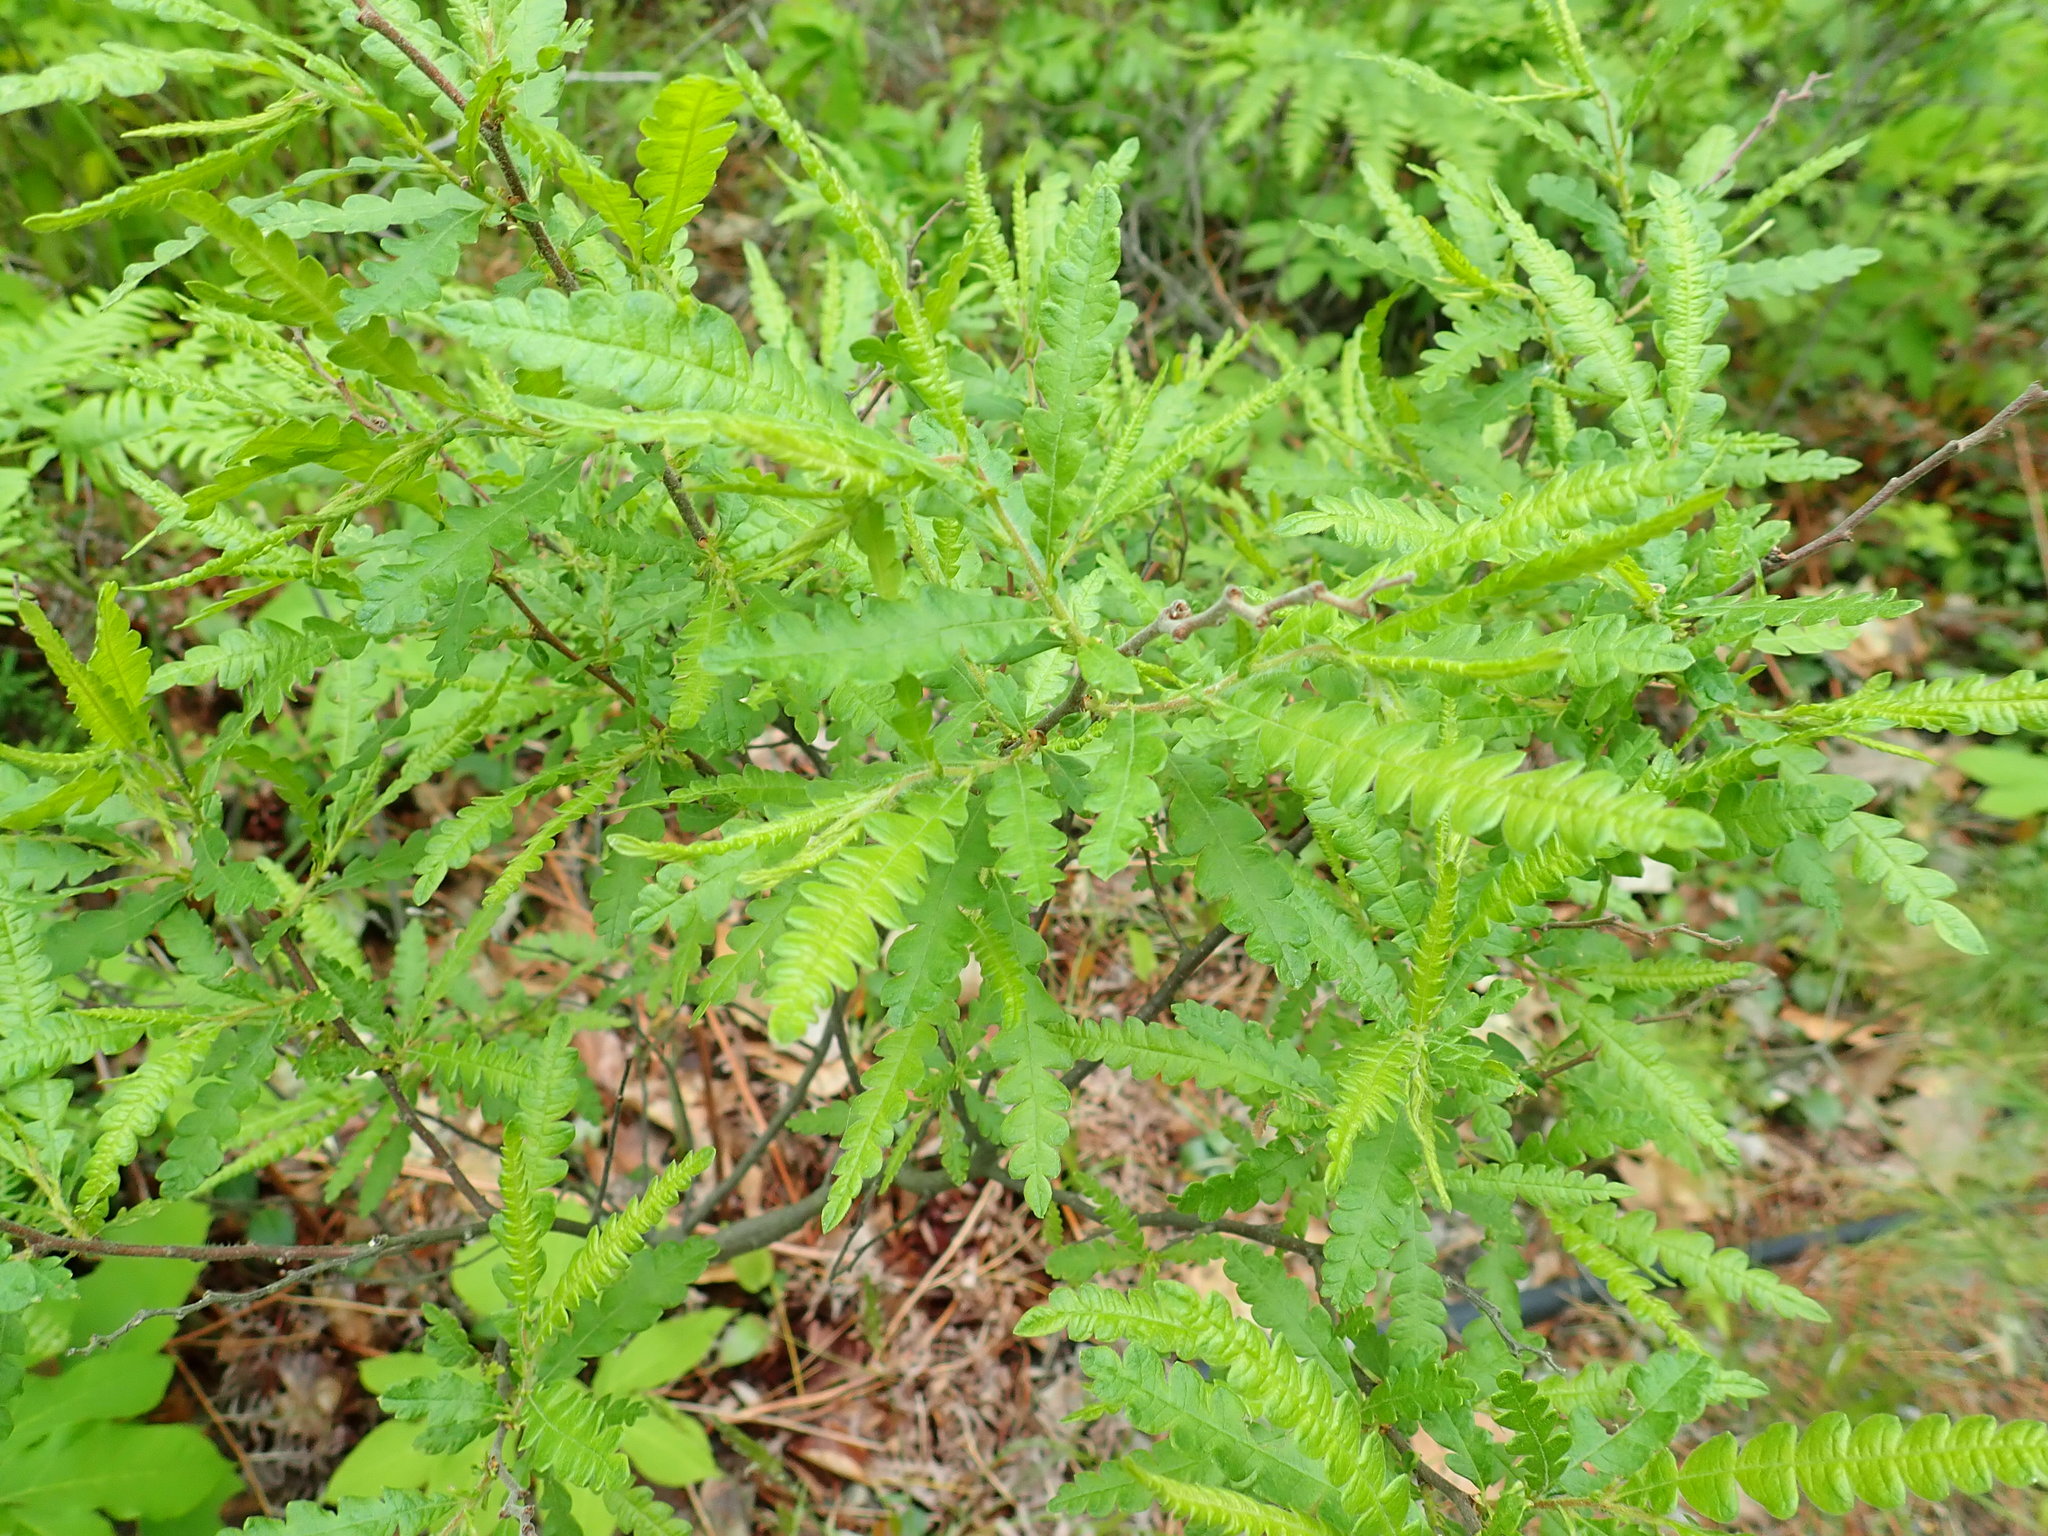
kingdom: Plantae
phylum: Tracheophyta
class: Magnoliopsida
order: Fagales
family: Myricaceae
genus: Comptonia
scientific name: Comptonia peregrina
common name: Sweet-fern
